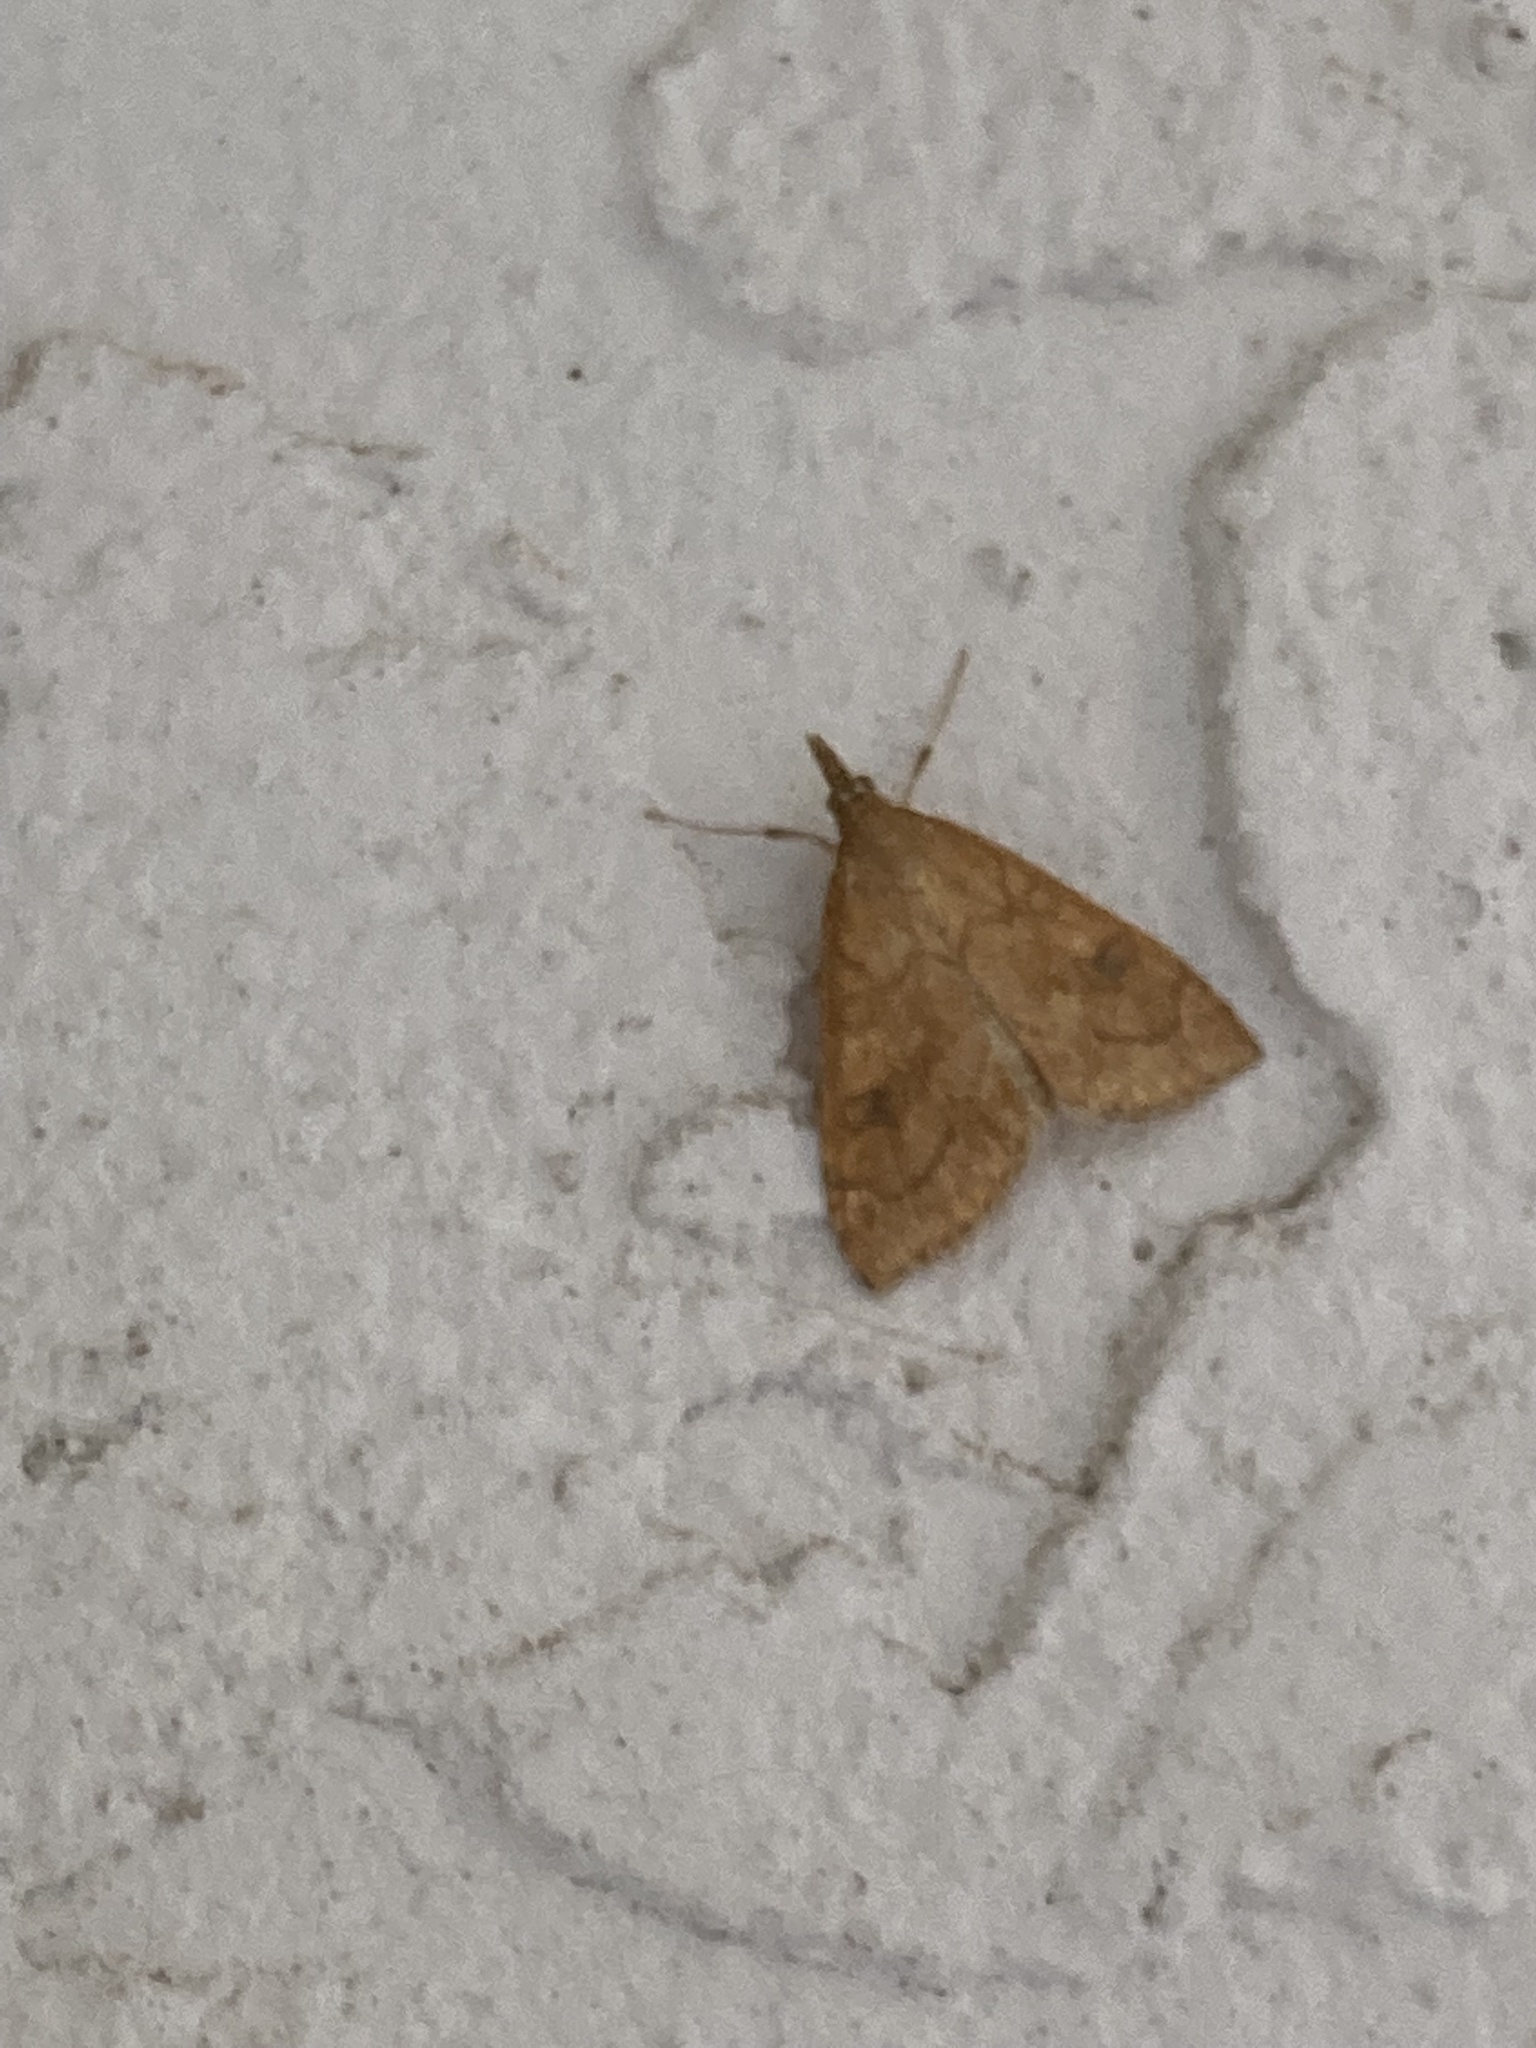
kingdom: Animalia
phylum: Arthropoda
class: Insecta
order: Lepidoptera
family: Crambidae
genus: Udea
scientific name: Udea profundalis
